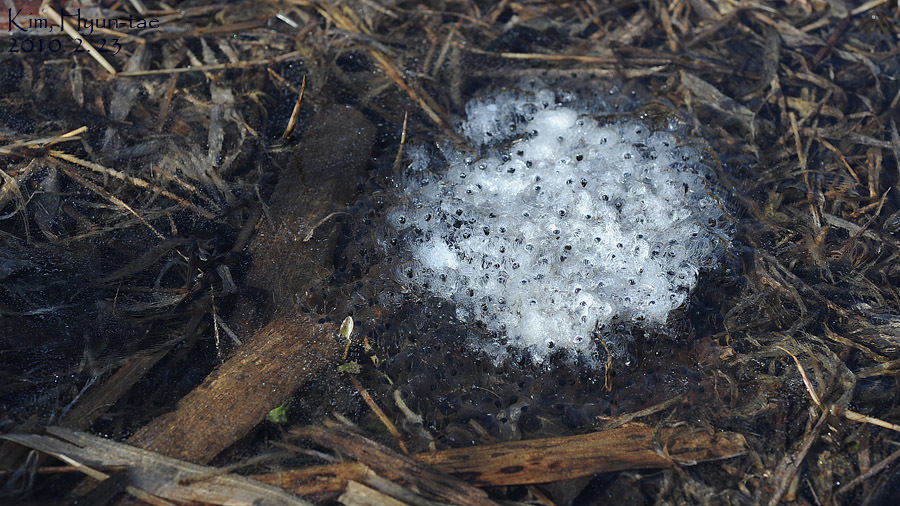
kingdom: Animalia
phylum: Chordata
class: Amphibia
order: Anura
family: Ranidae
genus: Rana
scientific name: Rana uenoi
